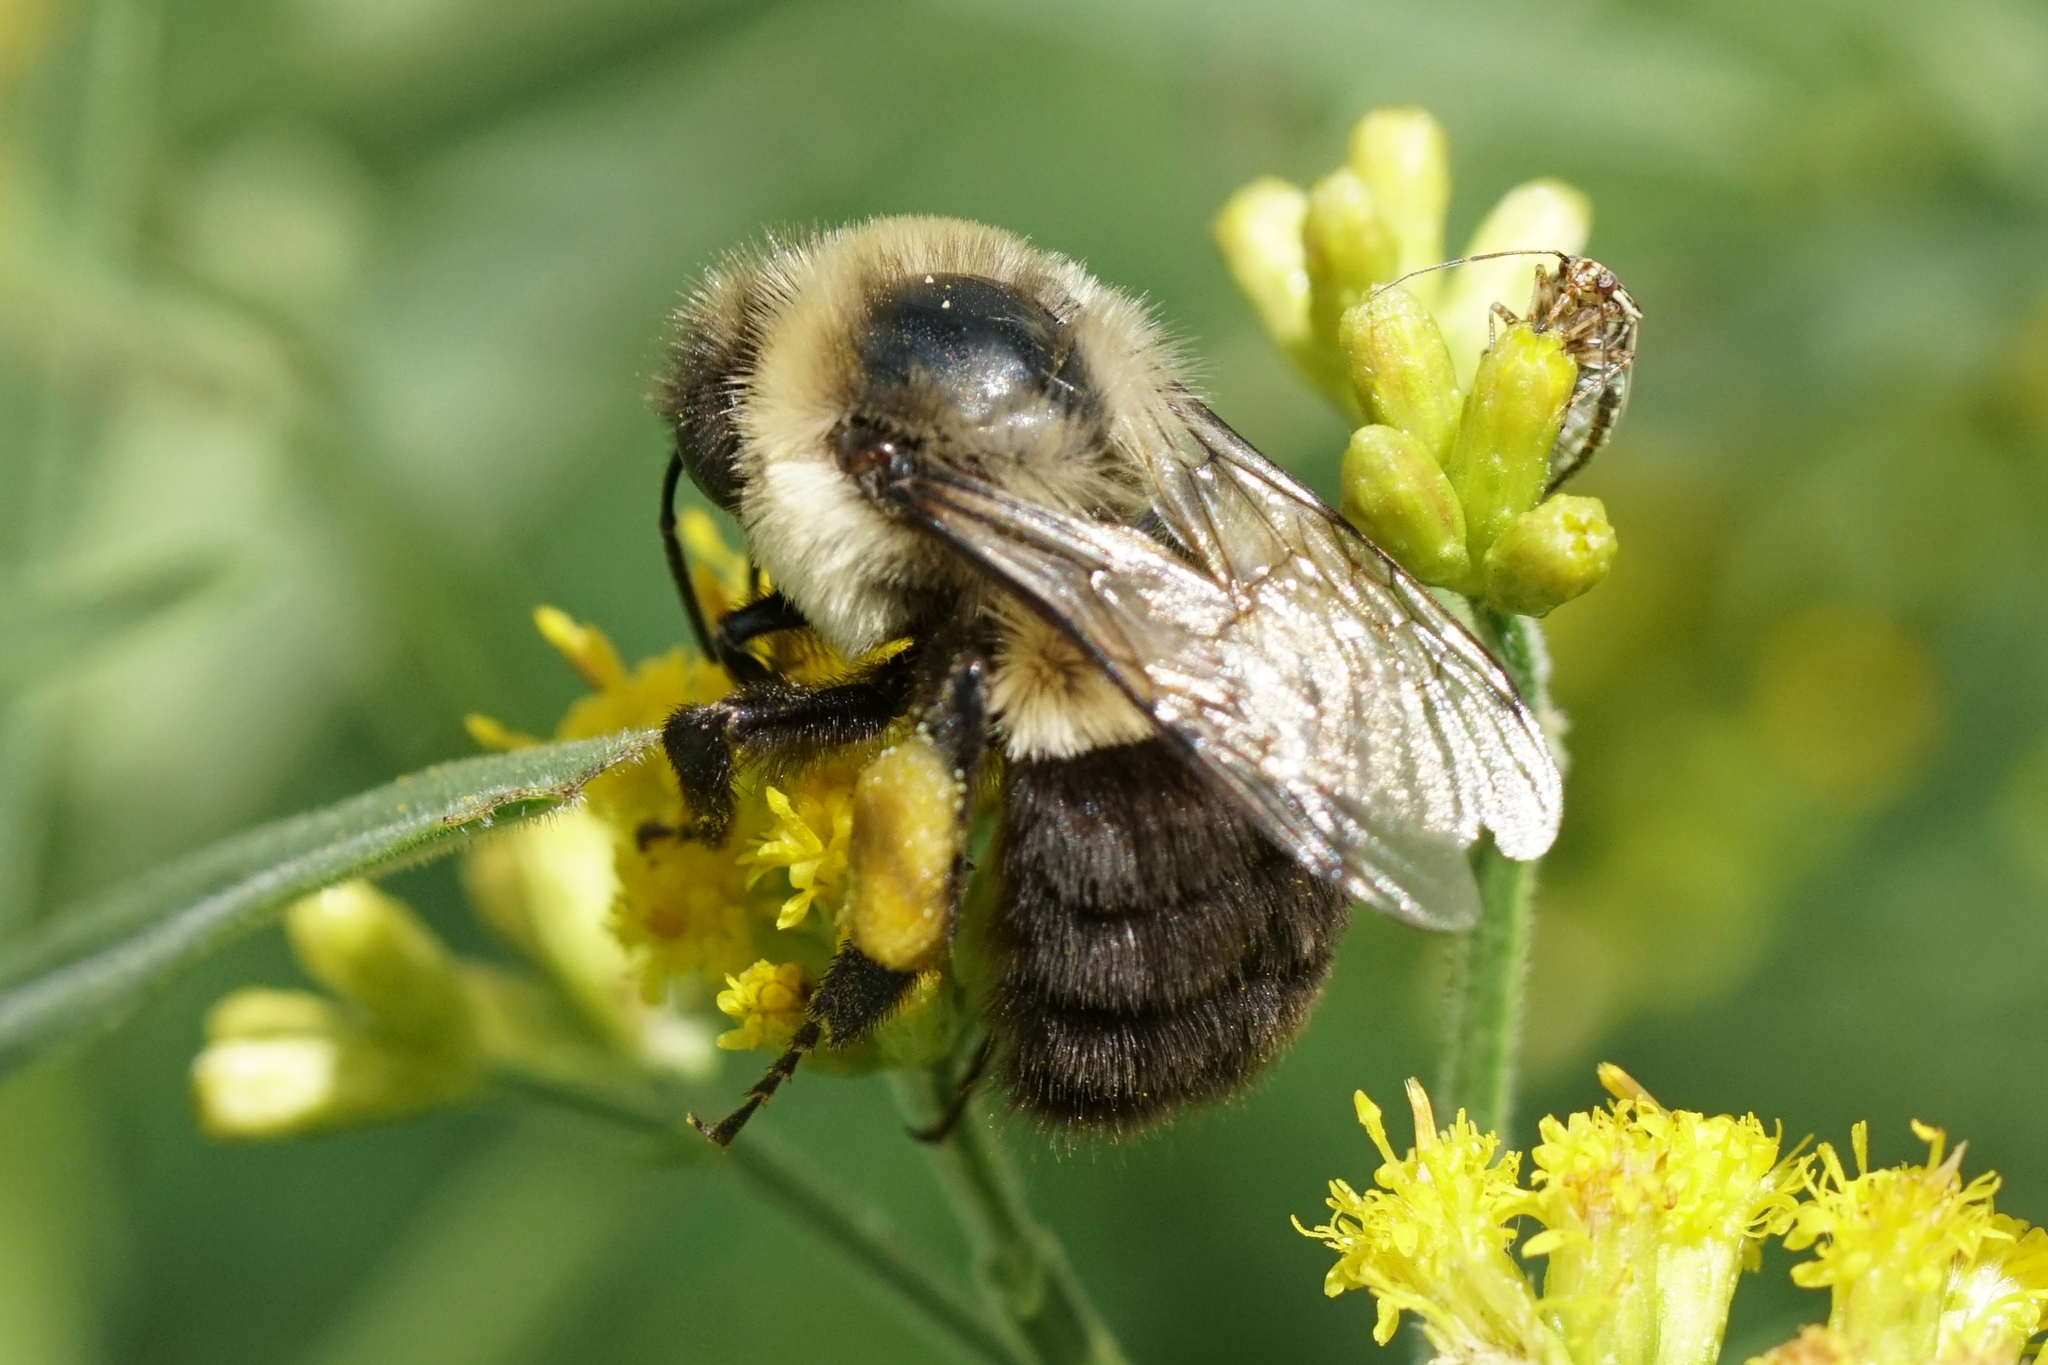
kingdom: Animalia
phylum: Arthropoda
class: Insecta
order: Hymenoptera
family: Apidae
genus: Bombus
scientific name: Bombus impatiens
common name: Common eastern bumble bee
